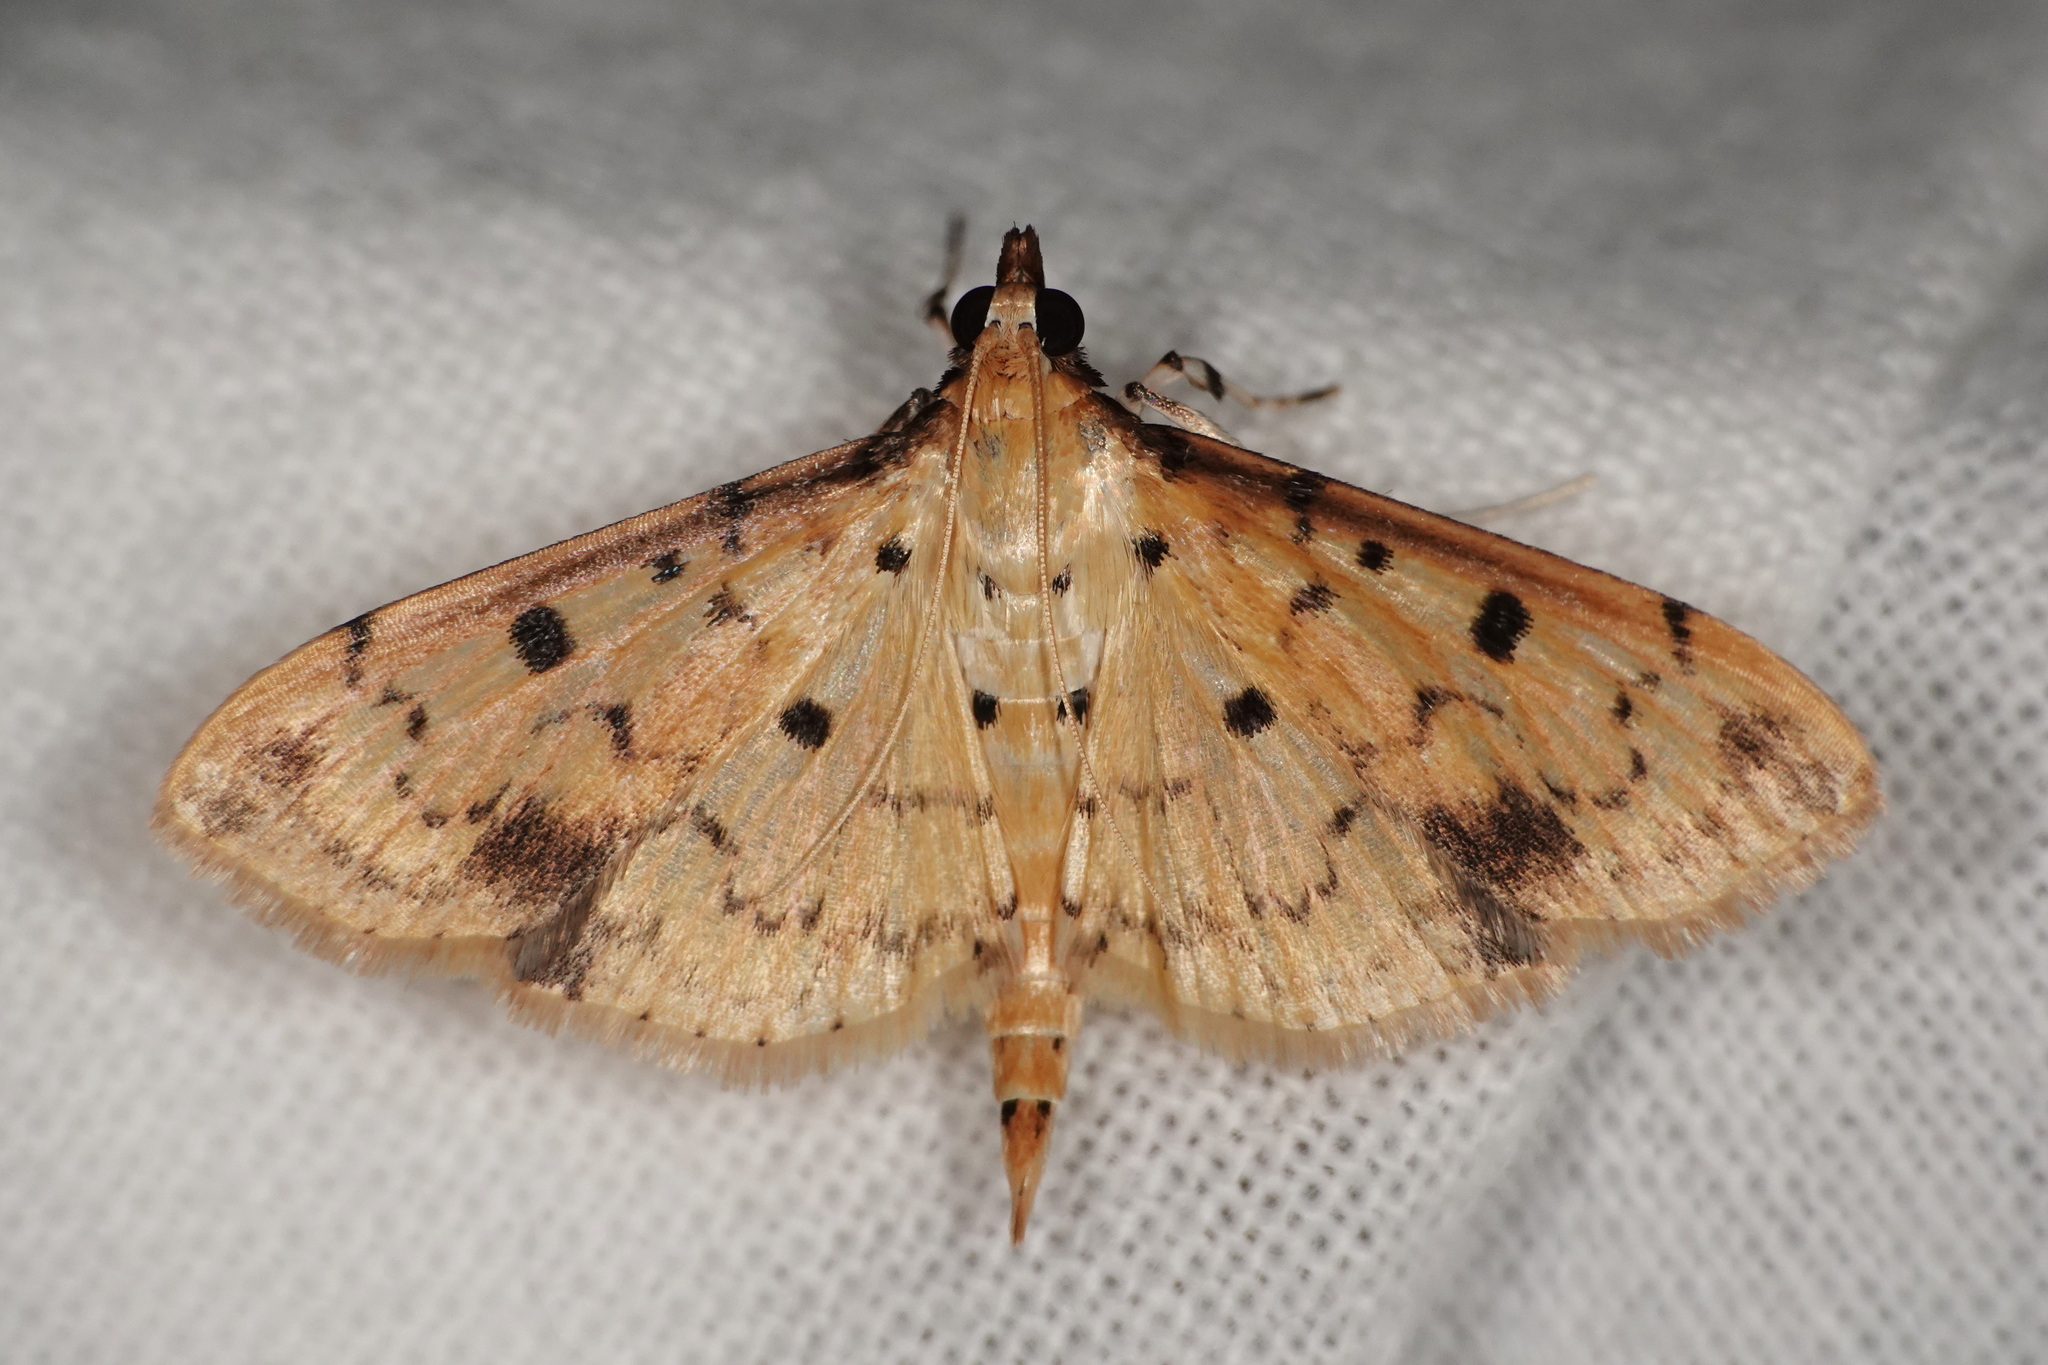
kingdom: Animalia
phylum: Arthropoda
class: Insecta
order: Lepidoptera
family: Crambidae
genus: Herpetogramma
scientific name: Herpetogramma cynaralis
